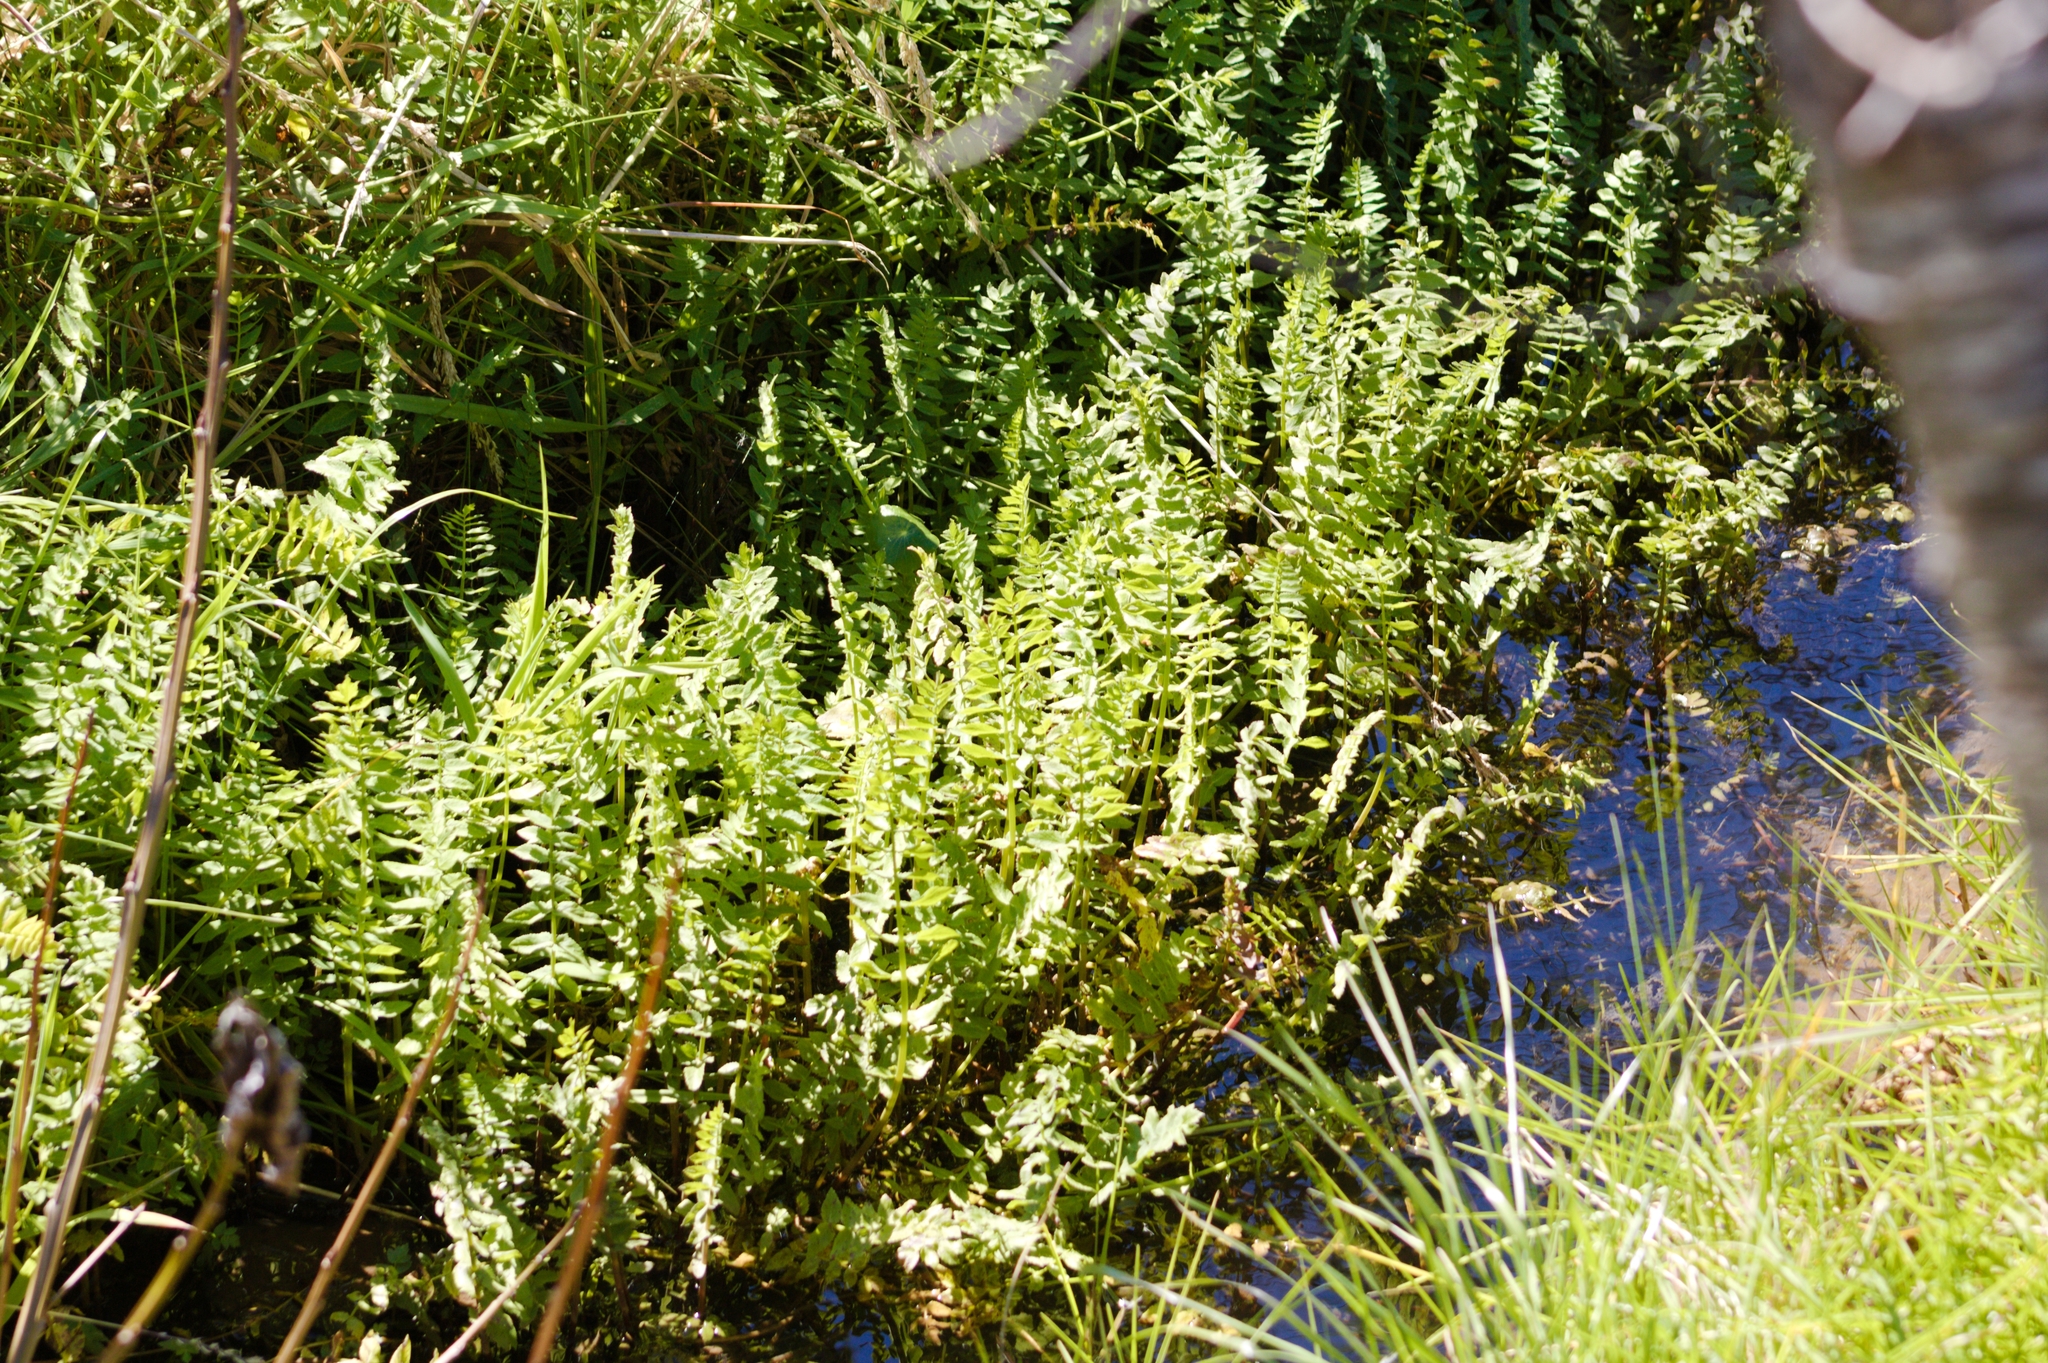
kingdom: Plantae
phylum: Tracheophyta
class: Magnoliopsida
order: Apiales
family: Apiaceae
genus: Berula
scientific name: Berula erecta
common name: Lesser water-parsnip
